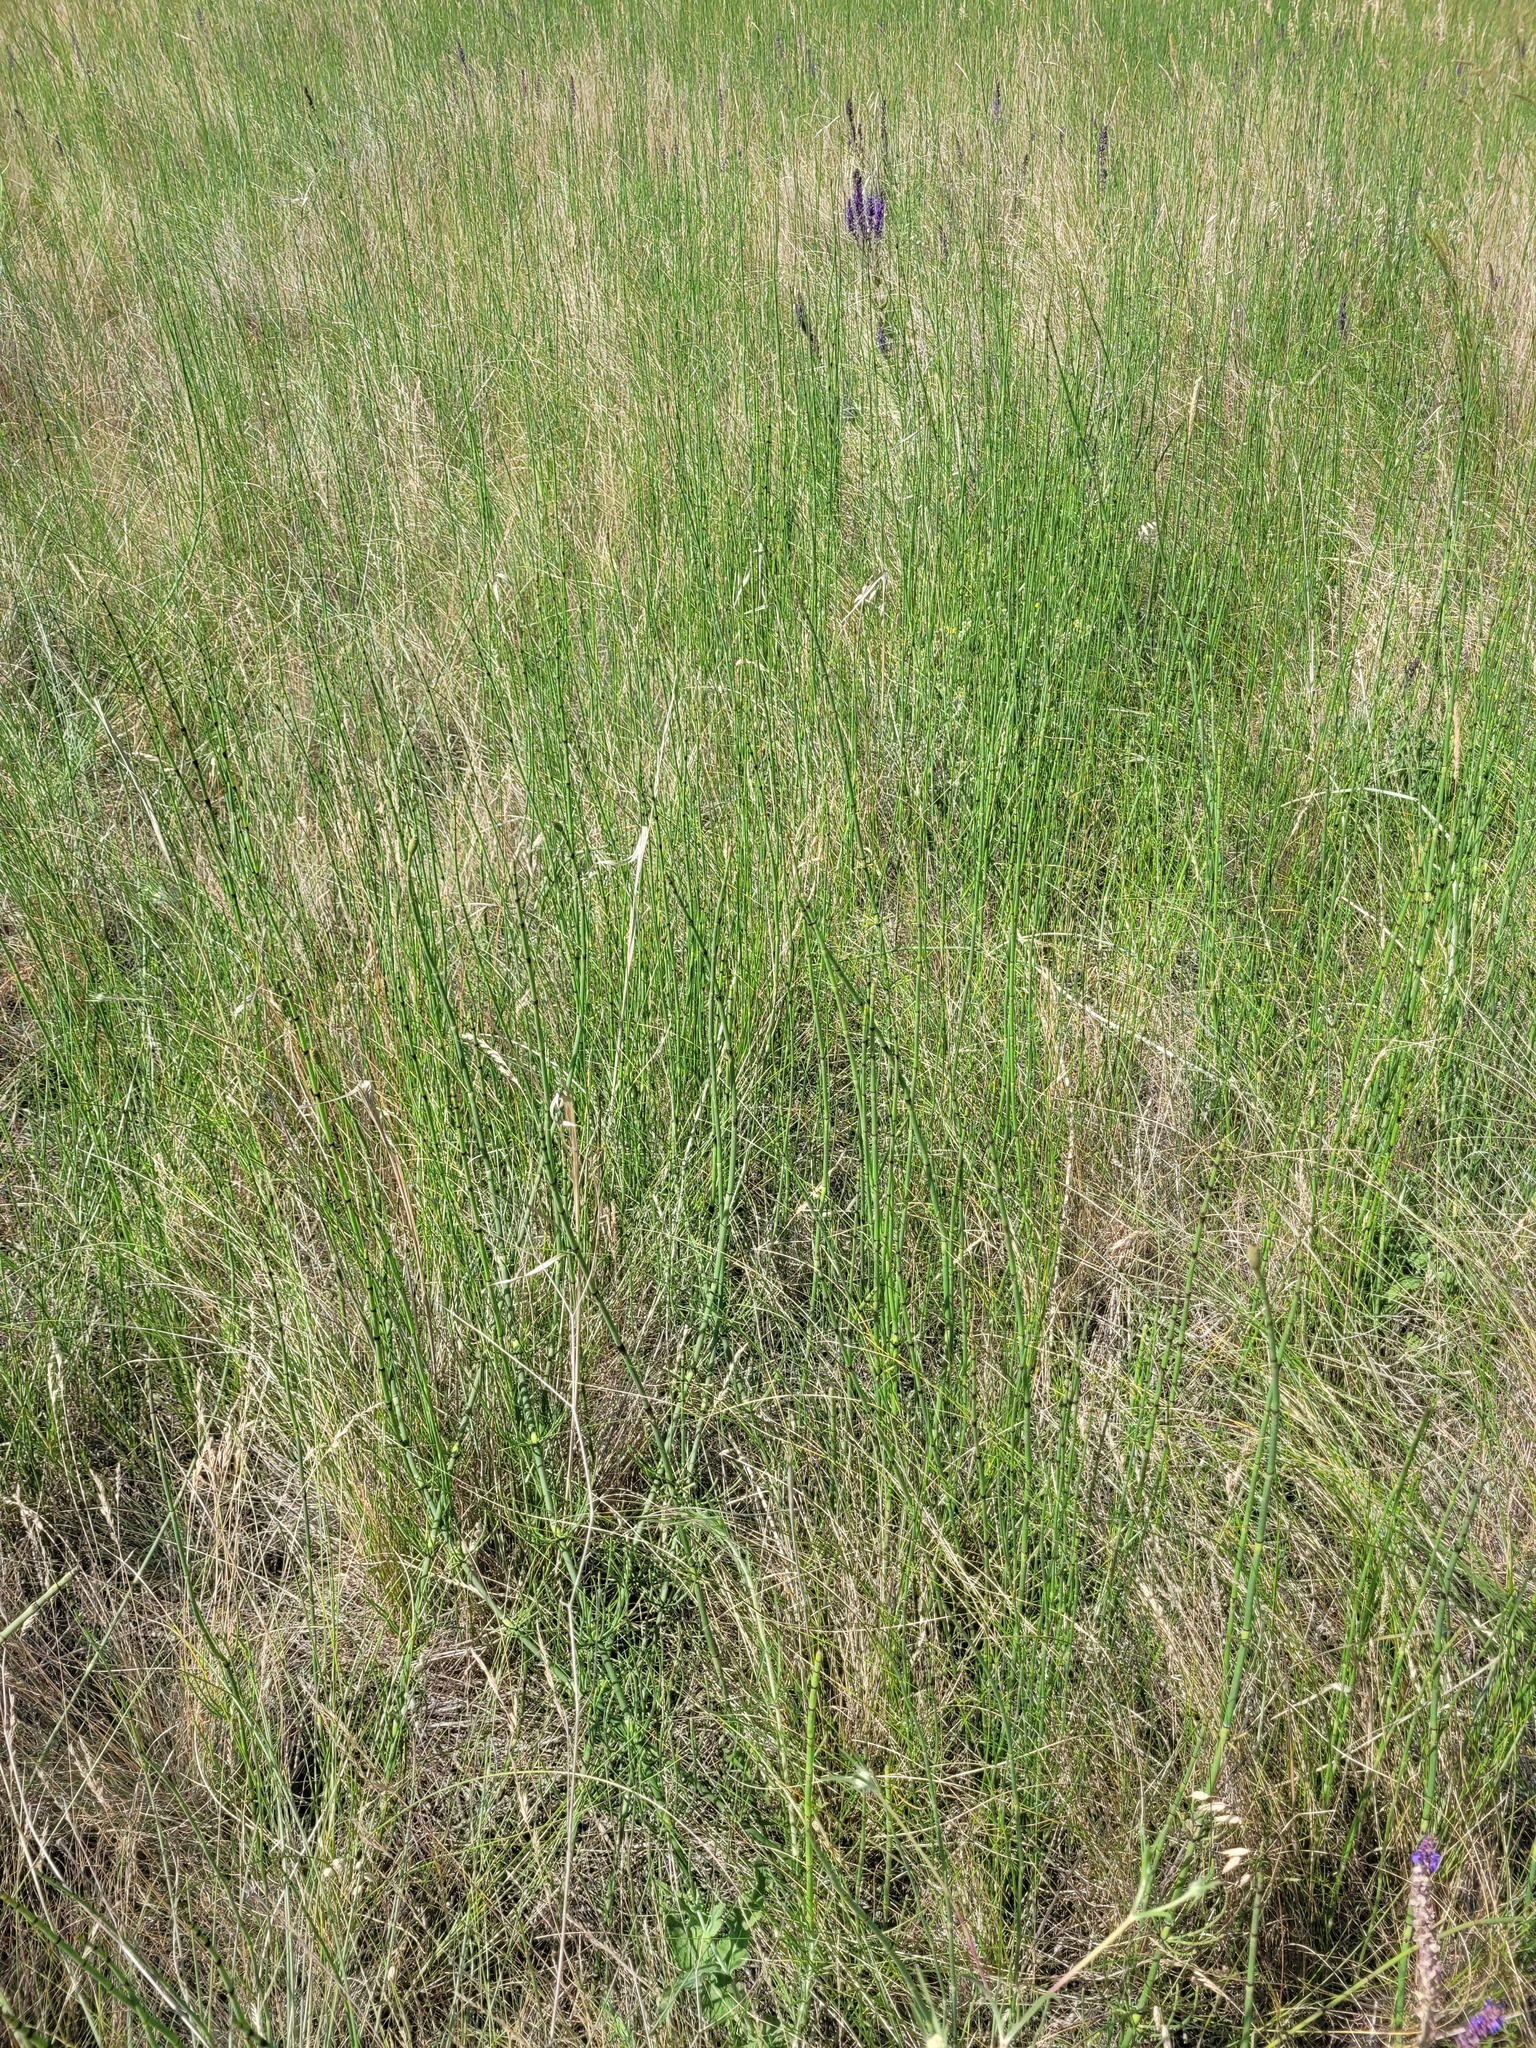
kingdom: Plantae
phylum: Tracheophyta
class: Polypodiopsida
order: Equisetales
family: Equisetaceae
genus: Equisetum
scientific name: Equisetum ramosissimum
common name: Branched horsetail
